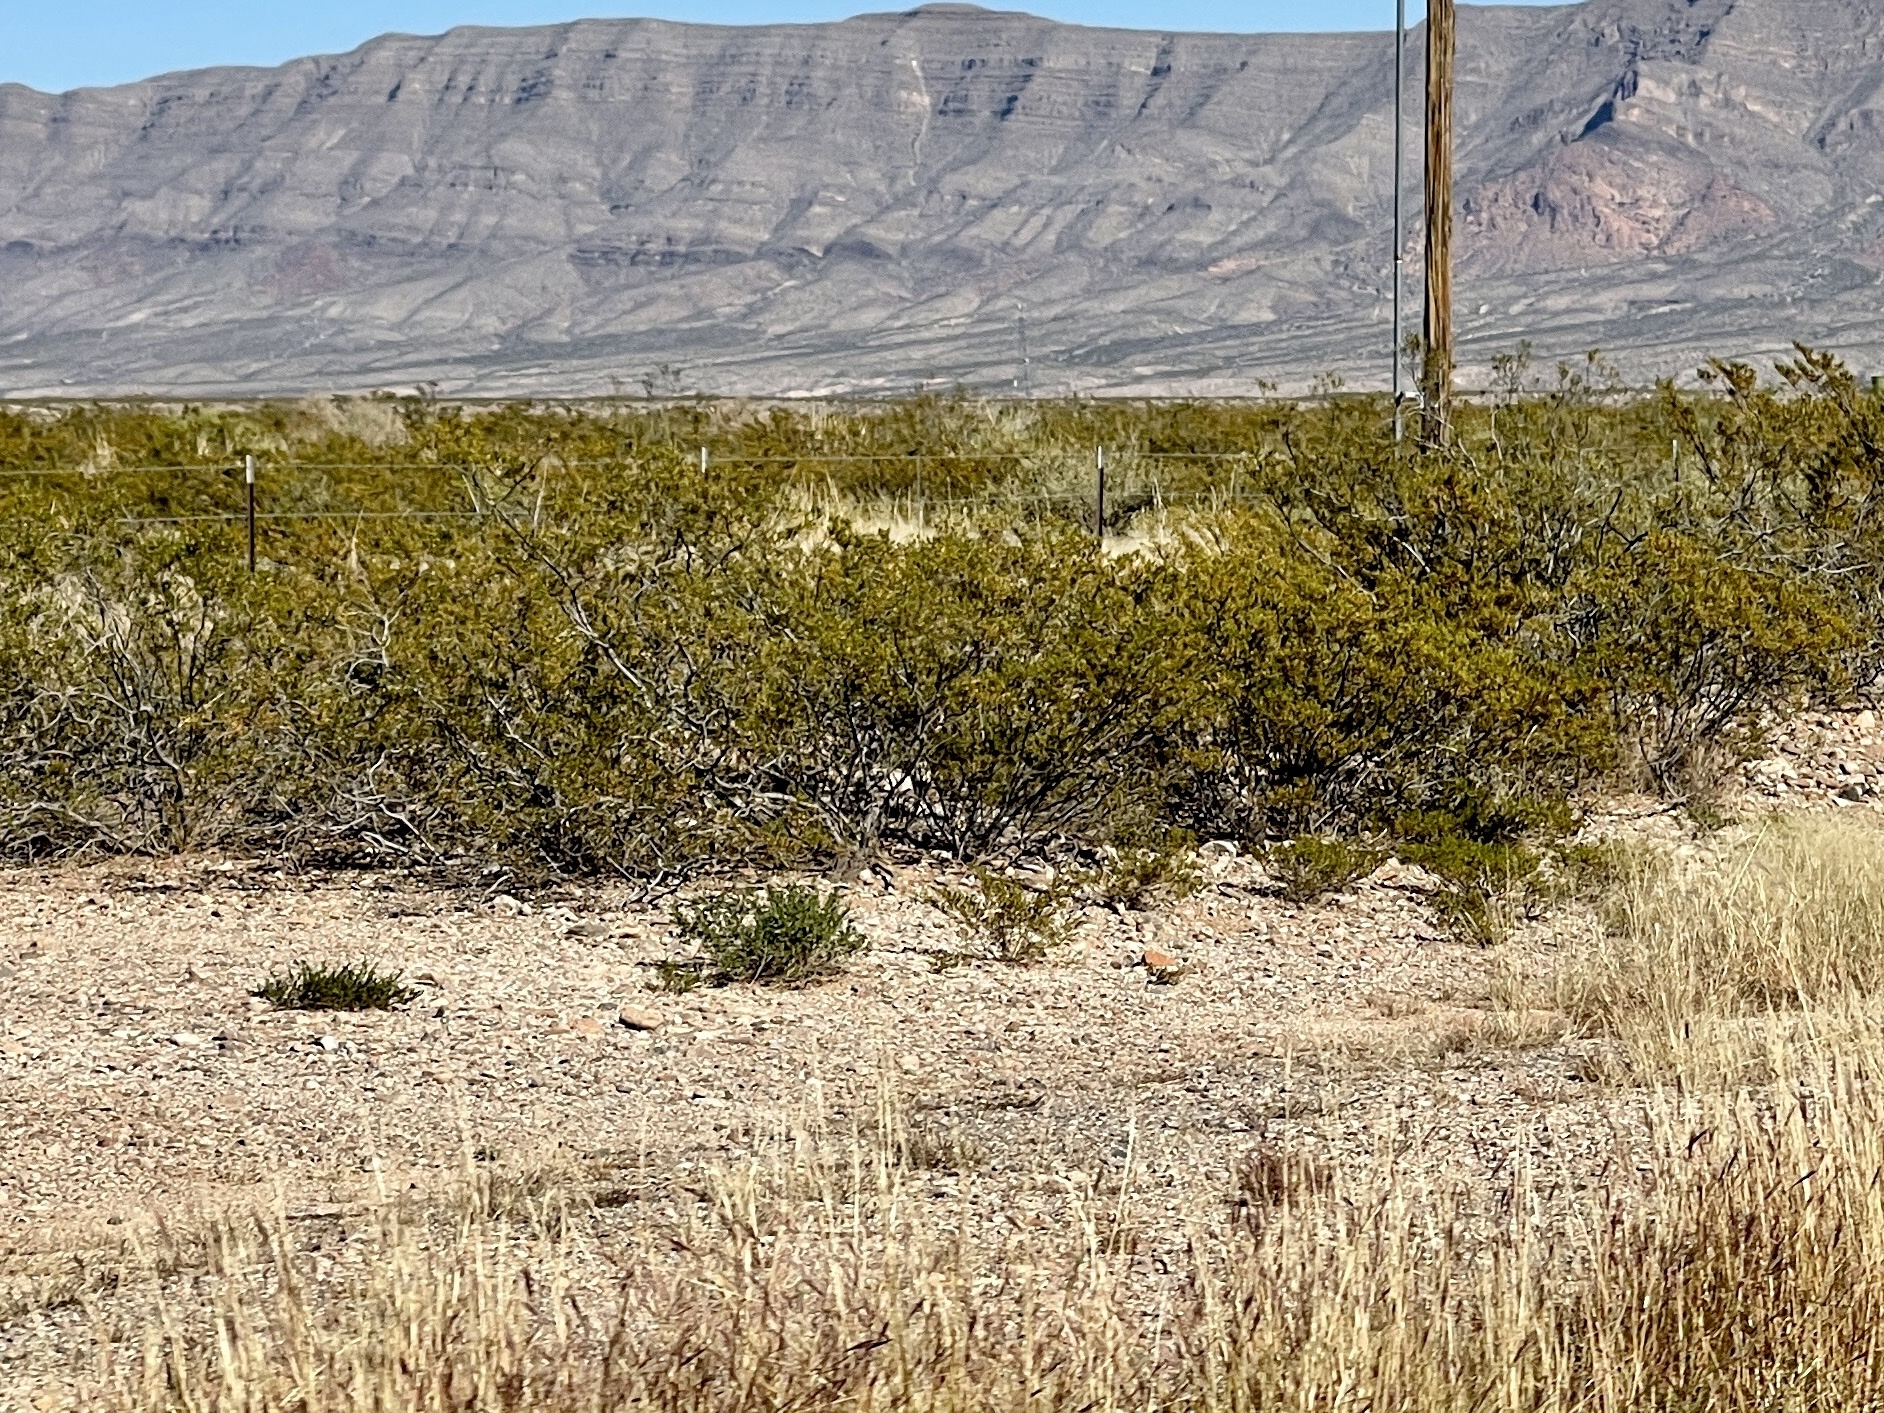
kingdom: Plantae
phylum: Tracheophyta
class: Magnoliopsida
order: Zygophyllales
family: Zygophyllaceae
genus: Larrea
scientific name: Larrea tridentata
